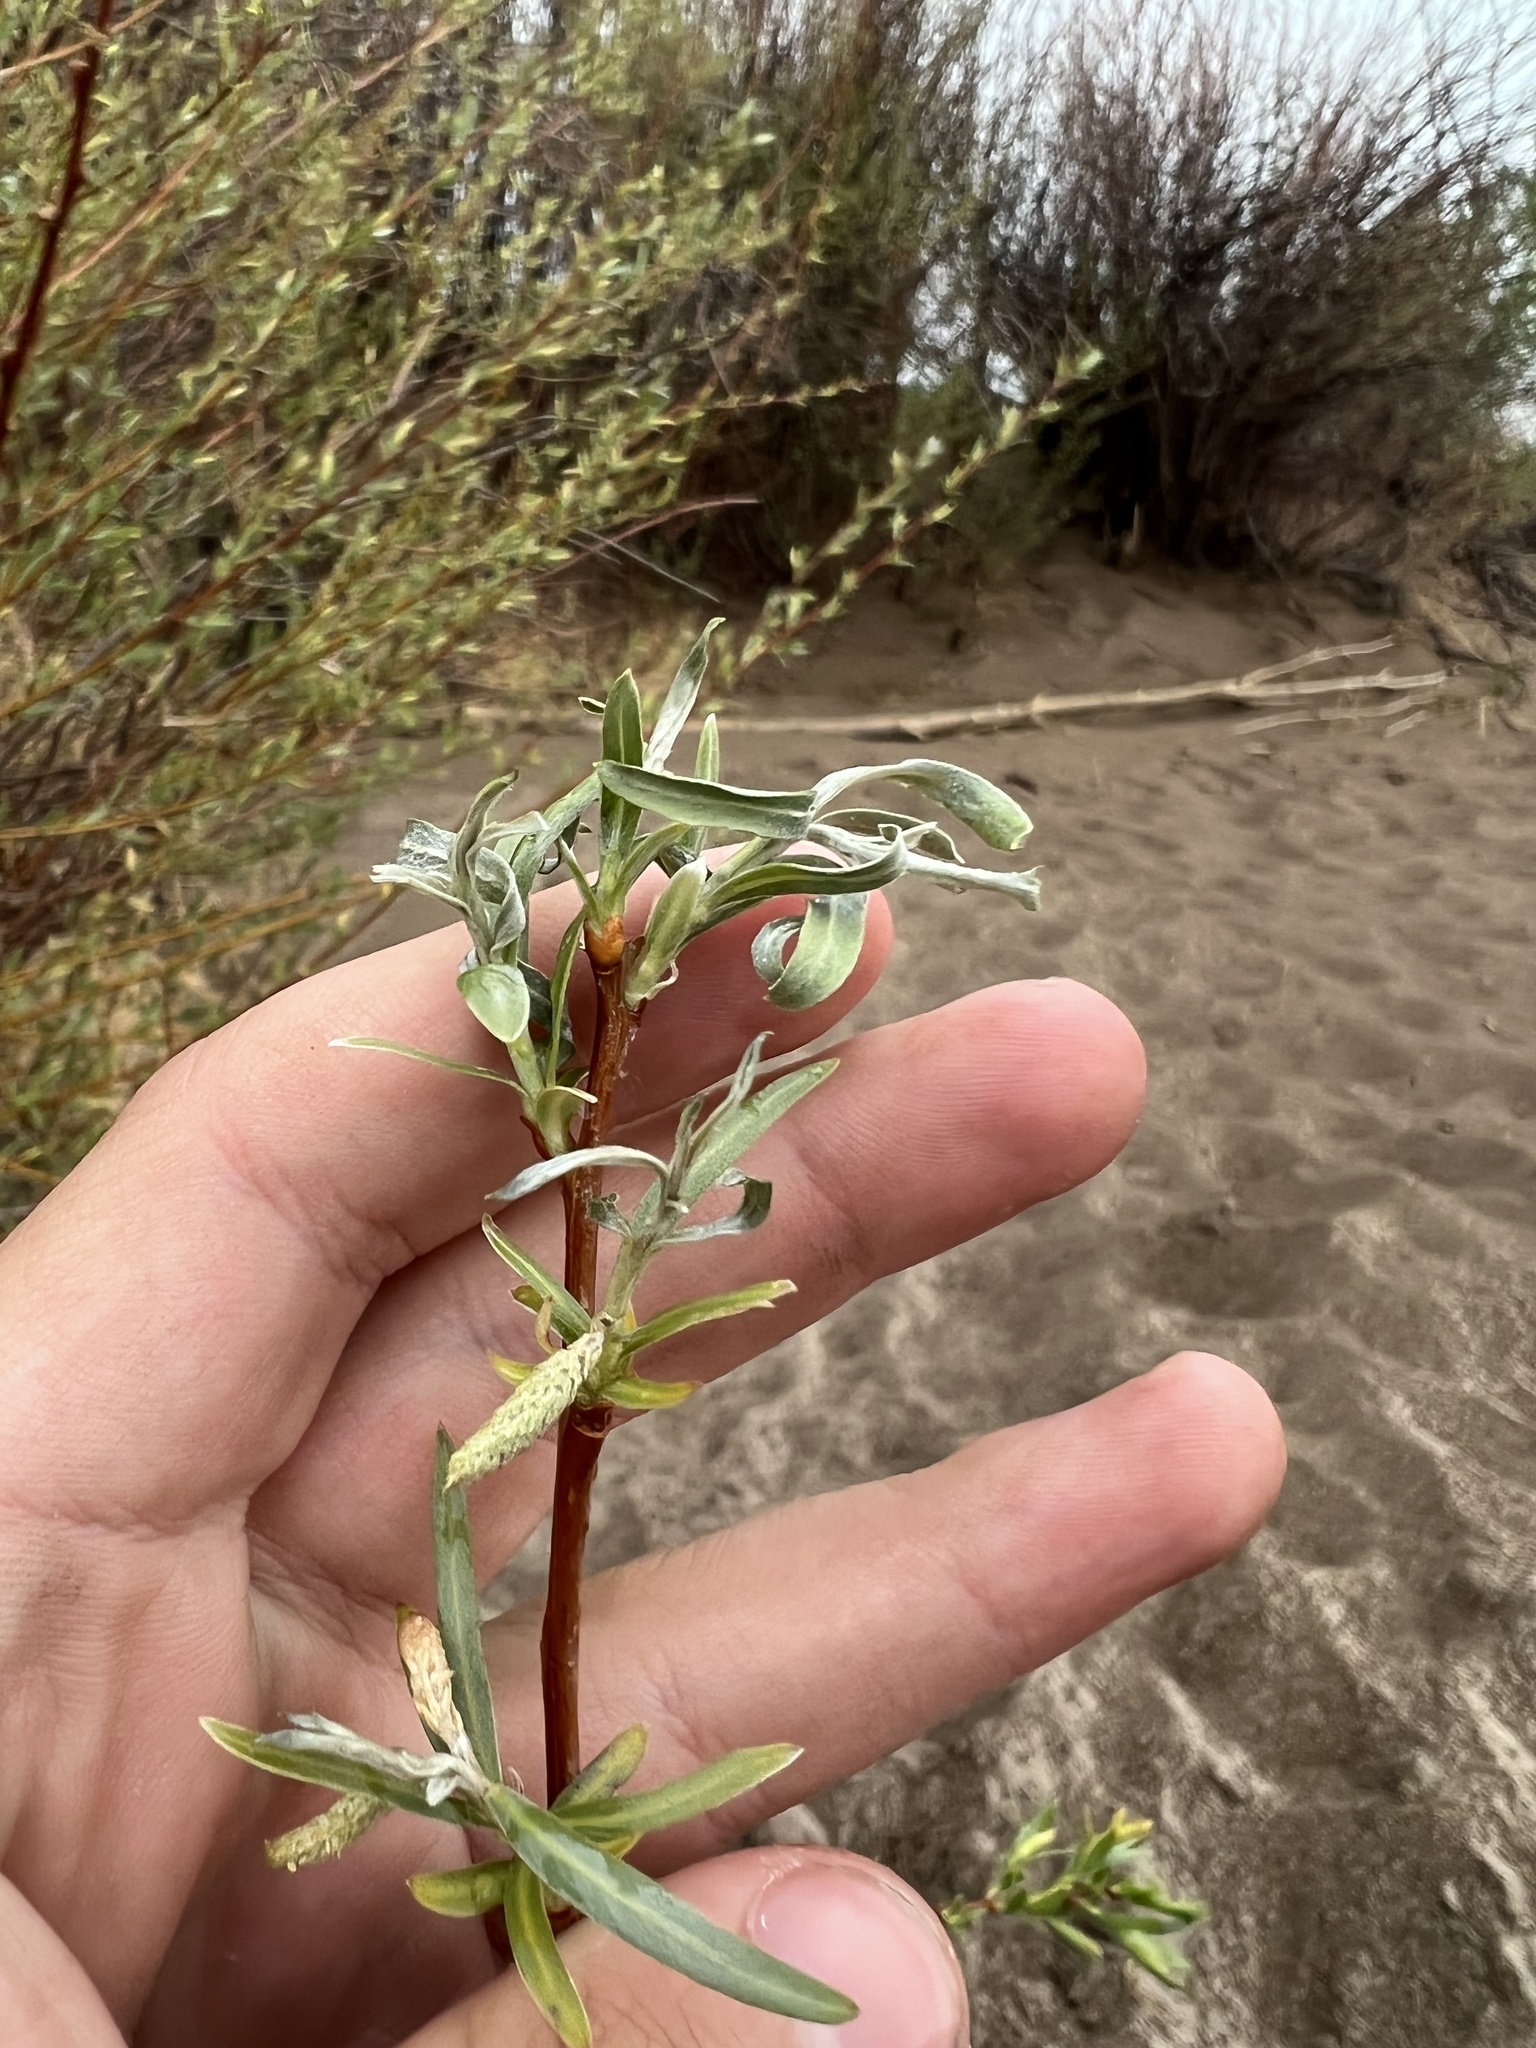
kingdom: Plantae
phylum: Tracheophyta
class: Magnoliopsida
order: Malpighiales
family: Salicaceae
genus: Salix
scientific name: Salix exigua
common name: Coyote willow
